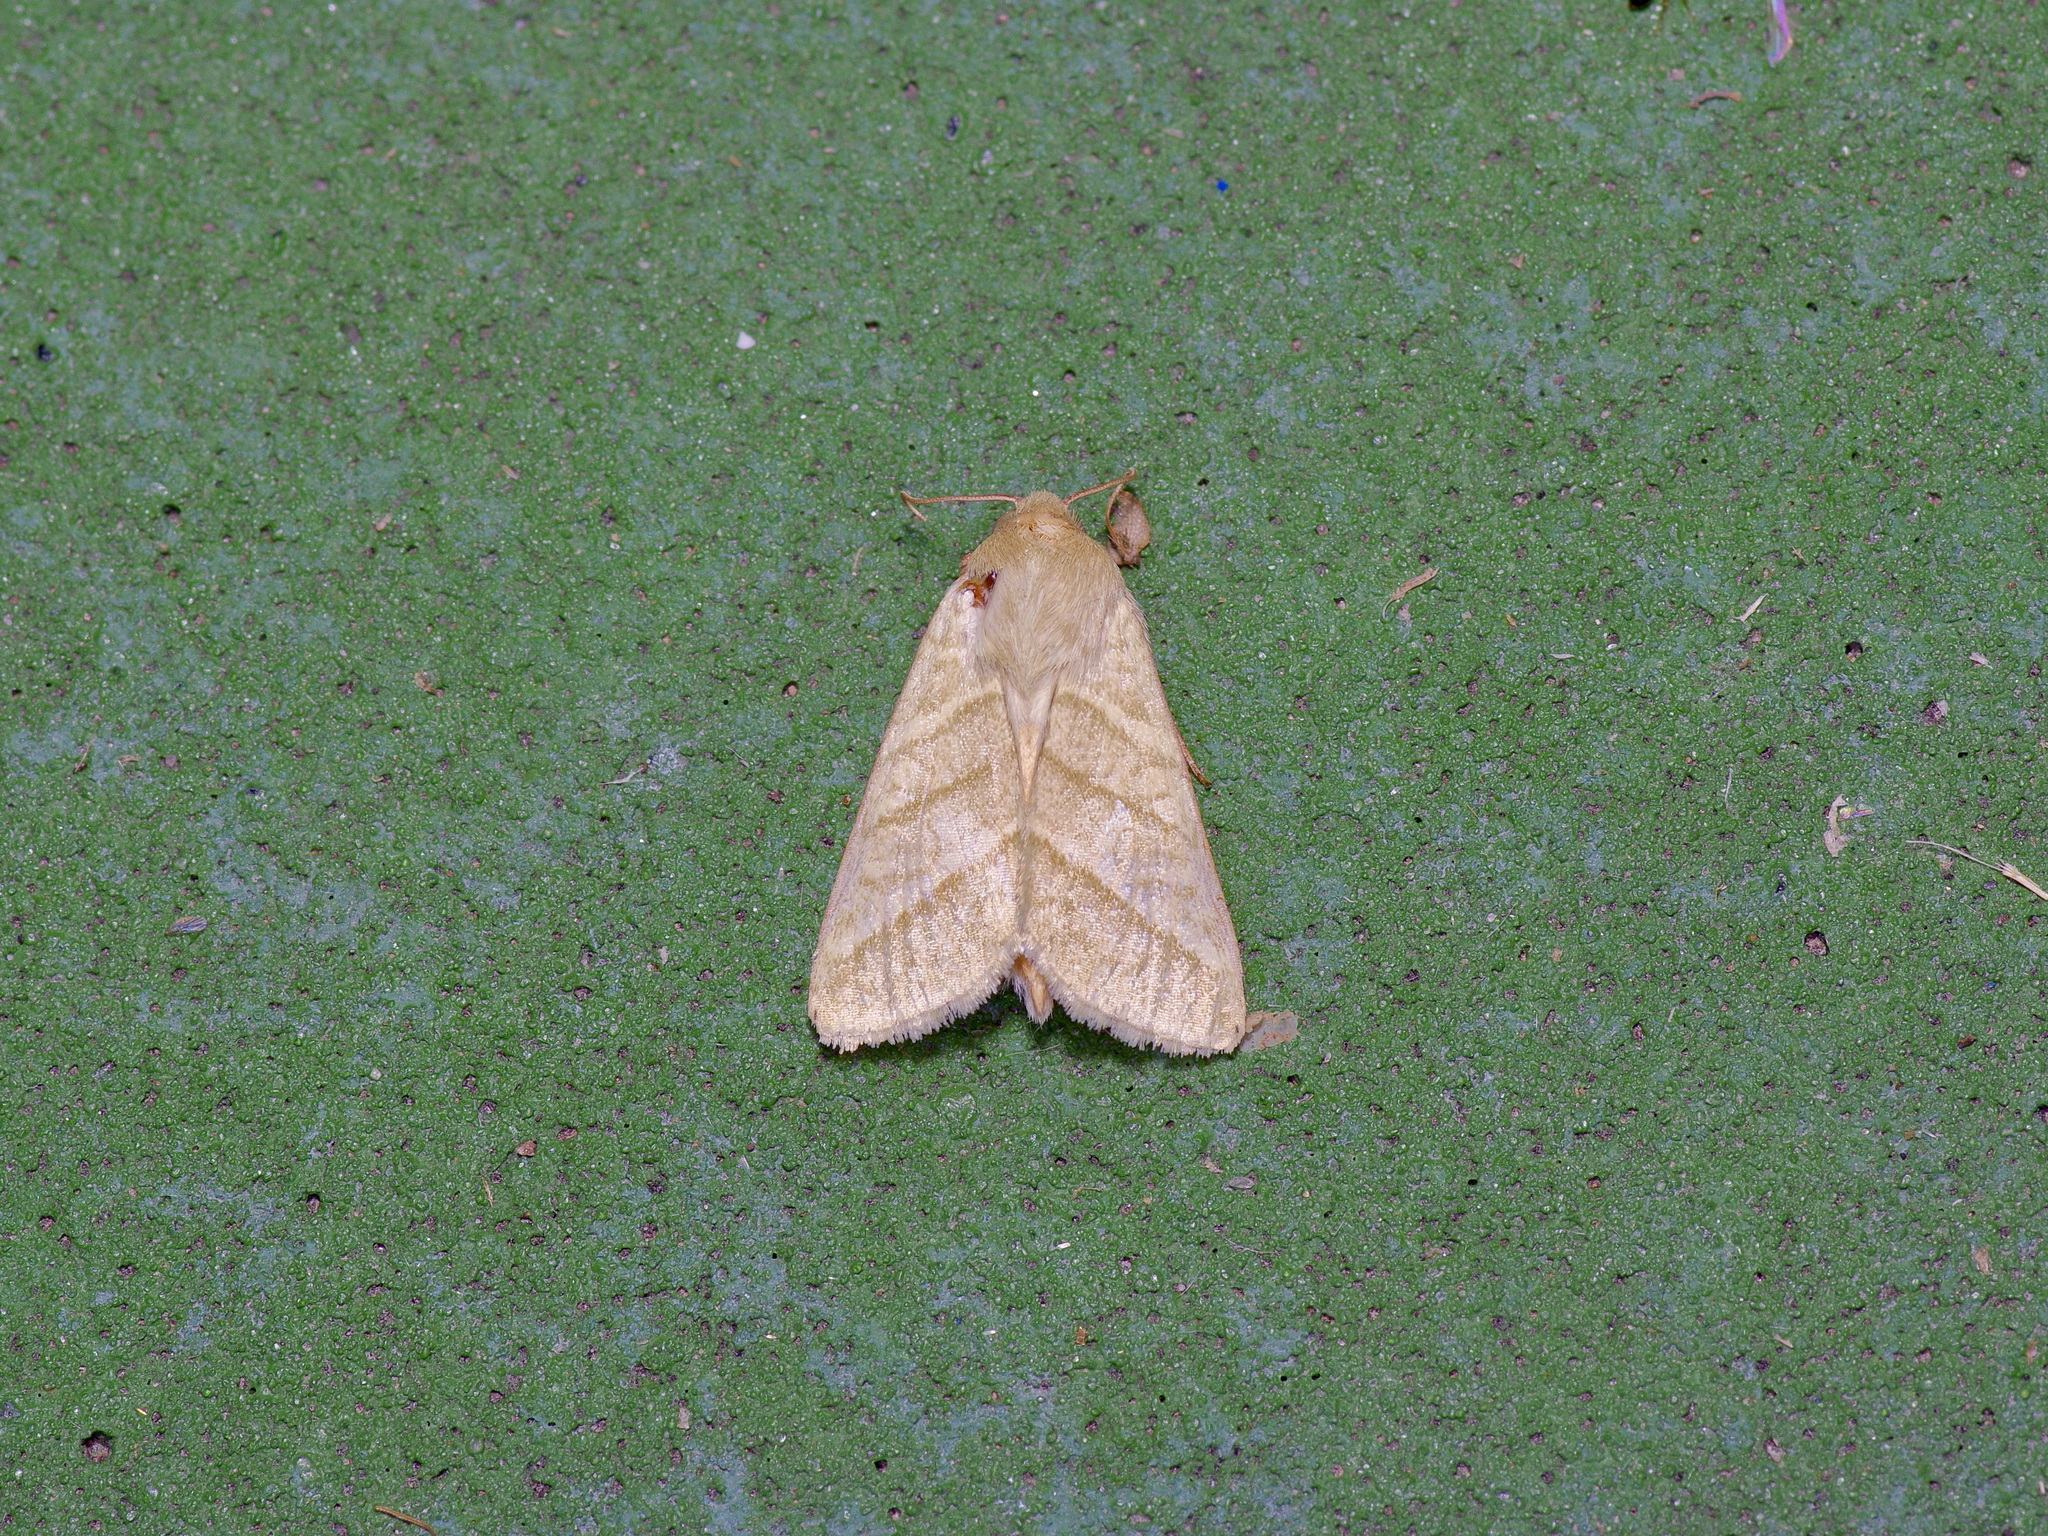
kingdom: Animalia
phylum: Arthropoda
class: Insecta
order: Lepidoptera
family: Noctuidae
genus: Chloridea
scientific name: Chloridea virescens
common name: Tobacco budworm
